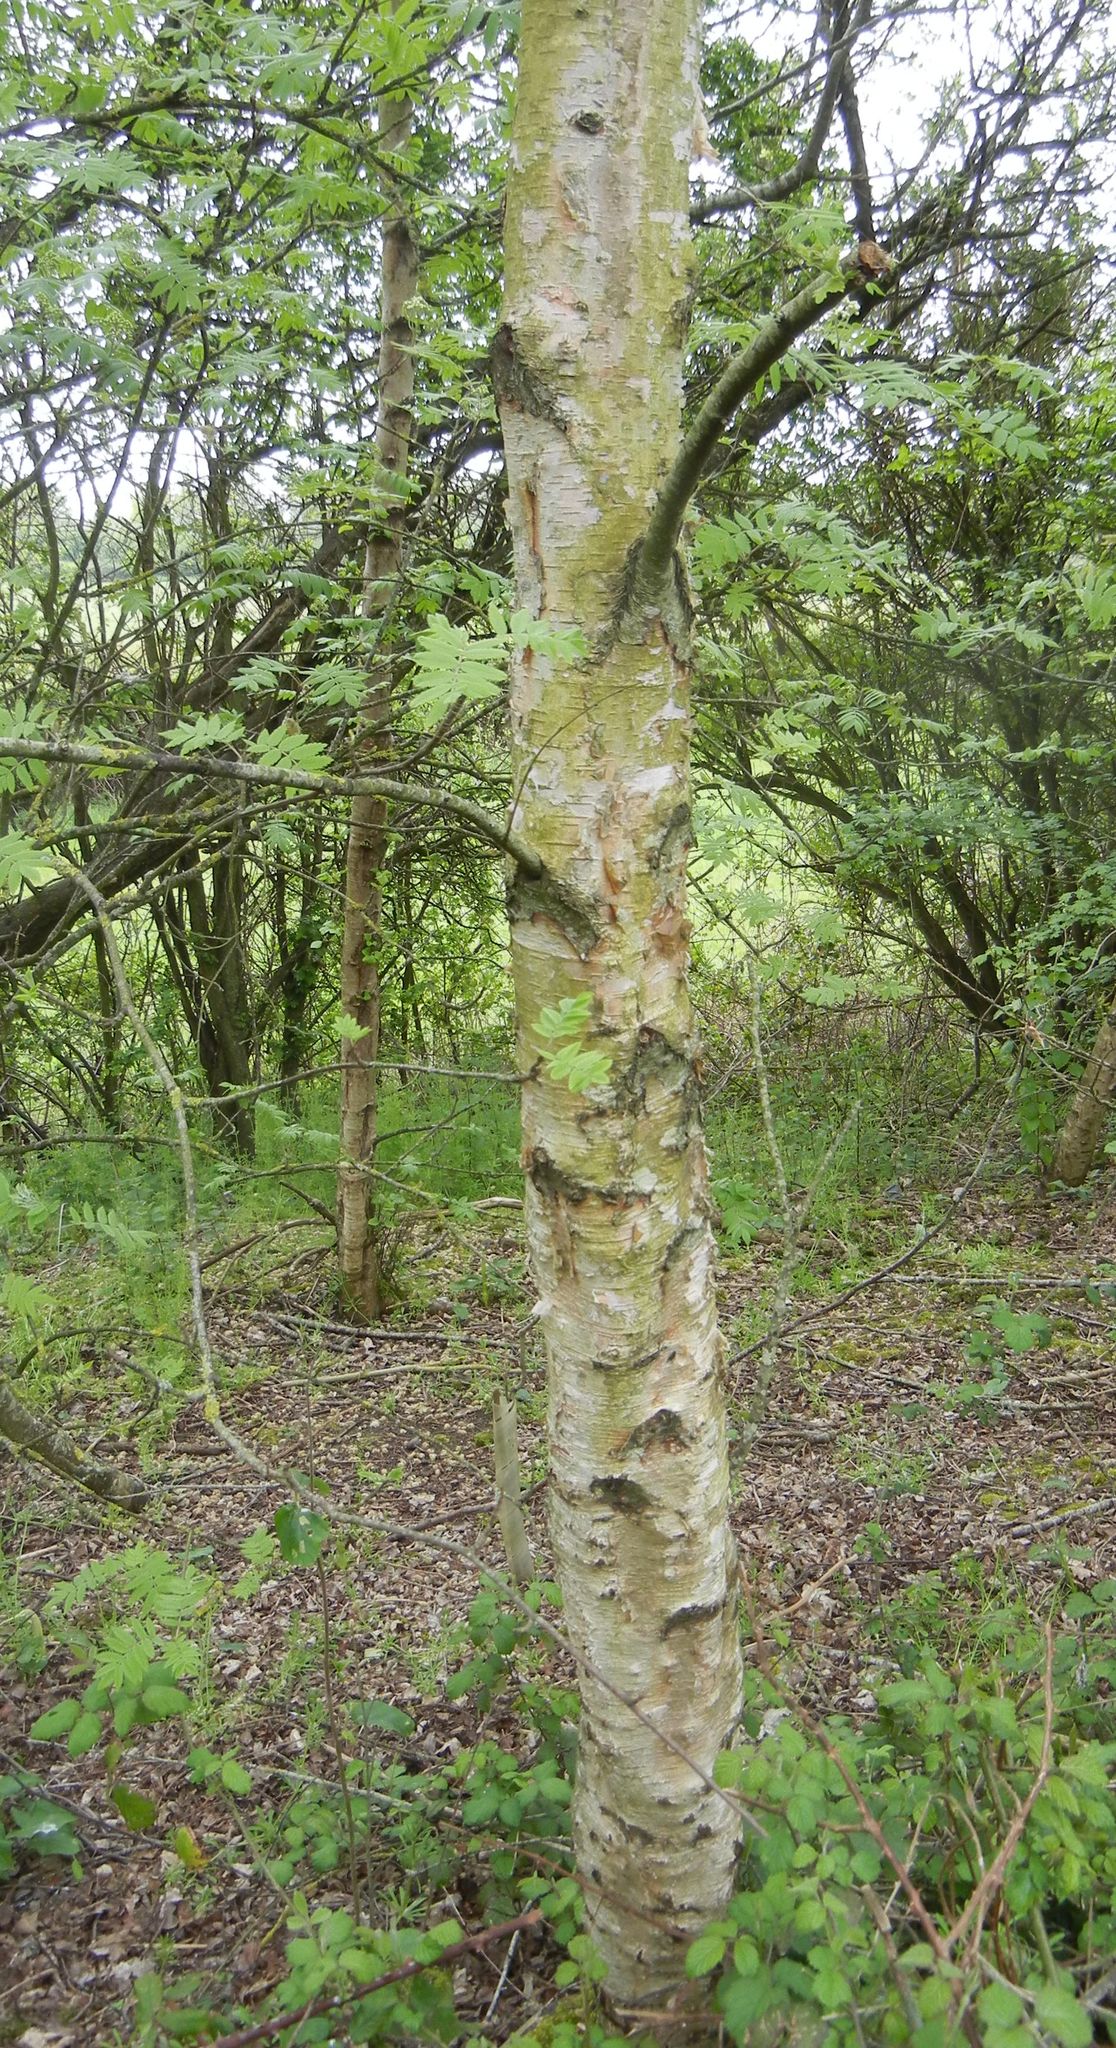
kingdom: Plantae
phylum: Tracheophyta
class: Magnoliopsida
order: Fagales
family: Betulaceae
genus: Betula
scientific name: Betula pendula
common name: Silver birch
